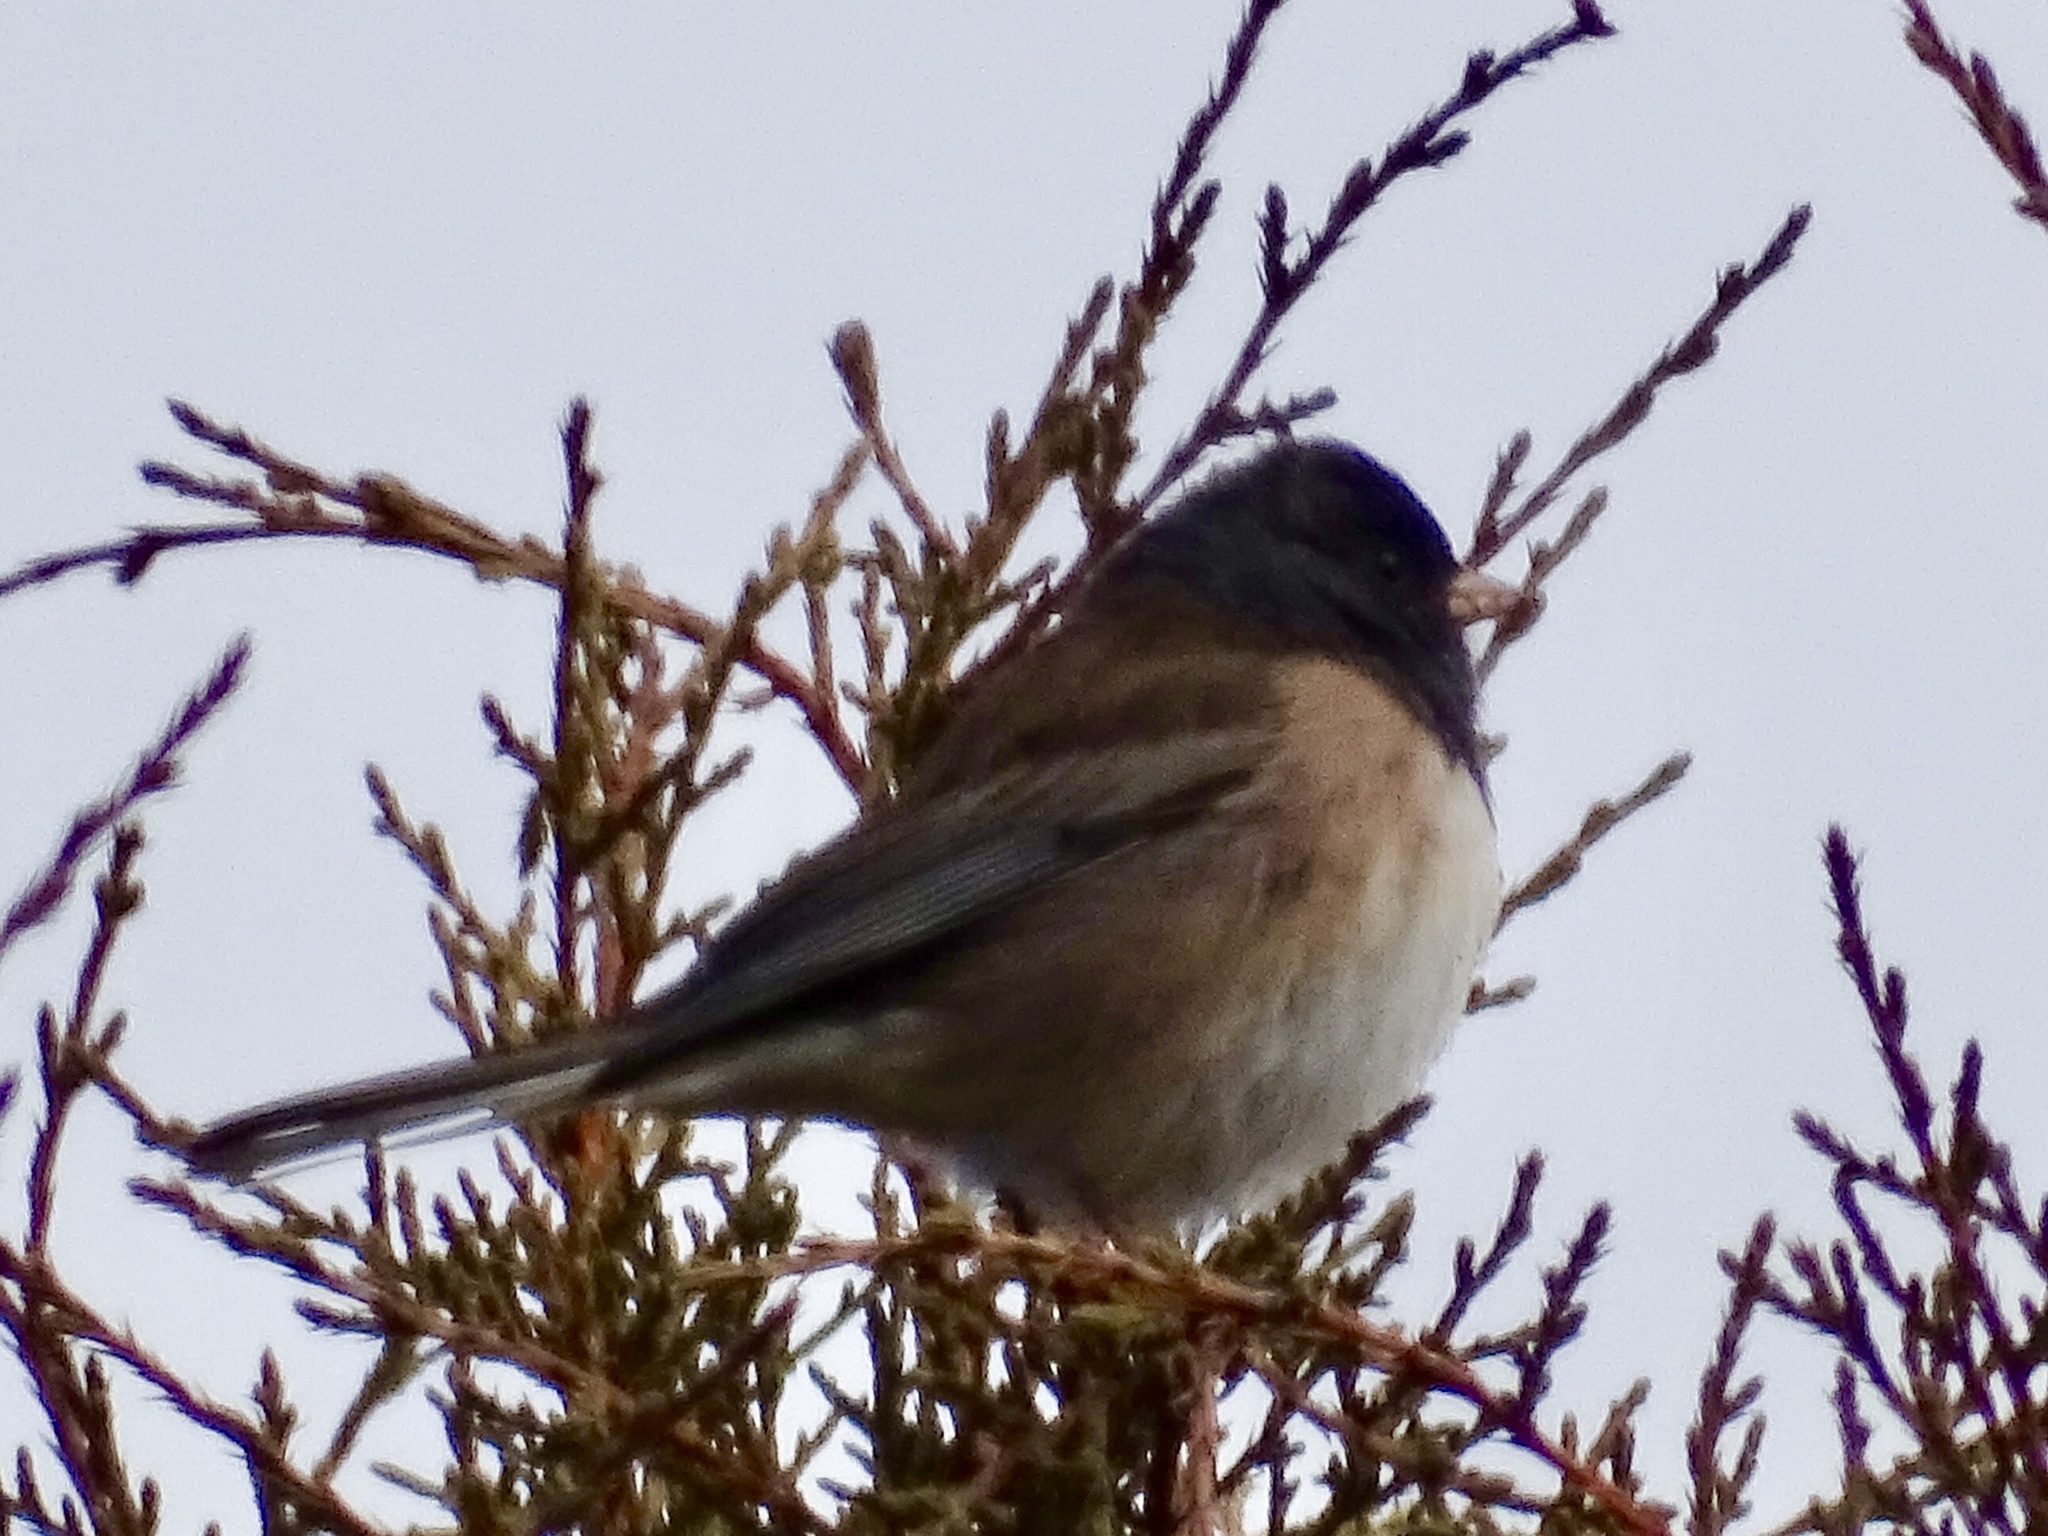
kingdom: Animalia
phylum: Chordata
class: Aves
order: Passeriformes
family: Passerellidae
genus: Junco
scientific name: Junco hyemalis
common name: Dark-eyed junco
